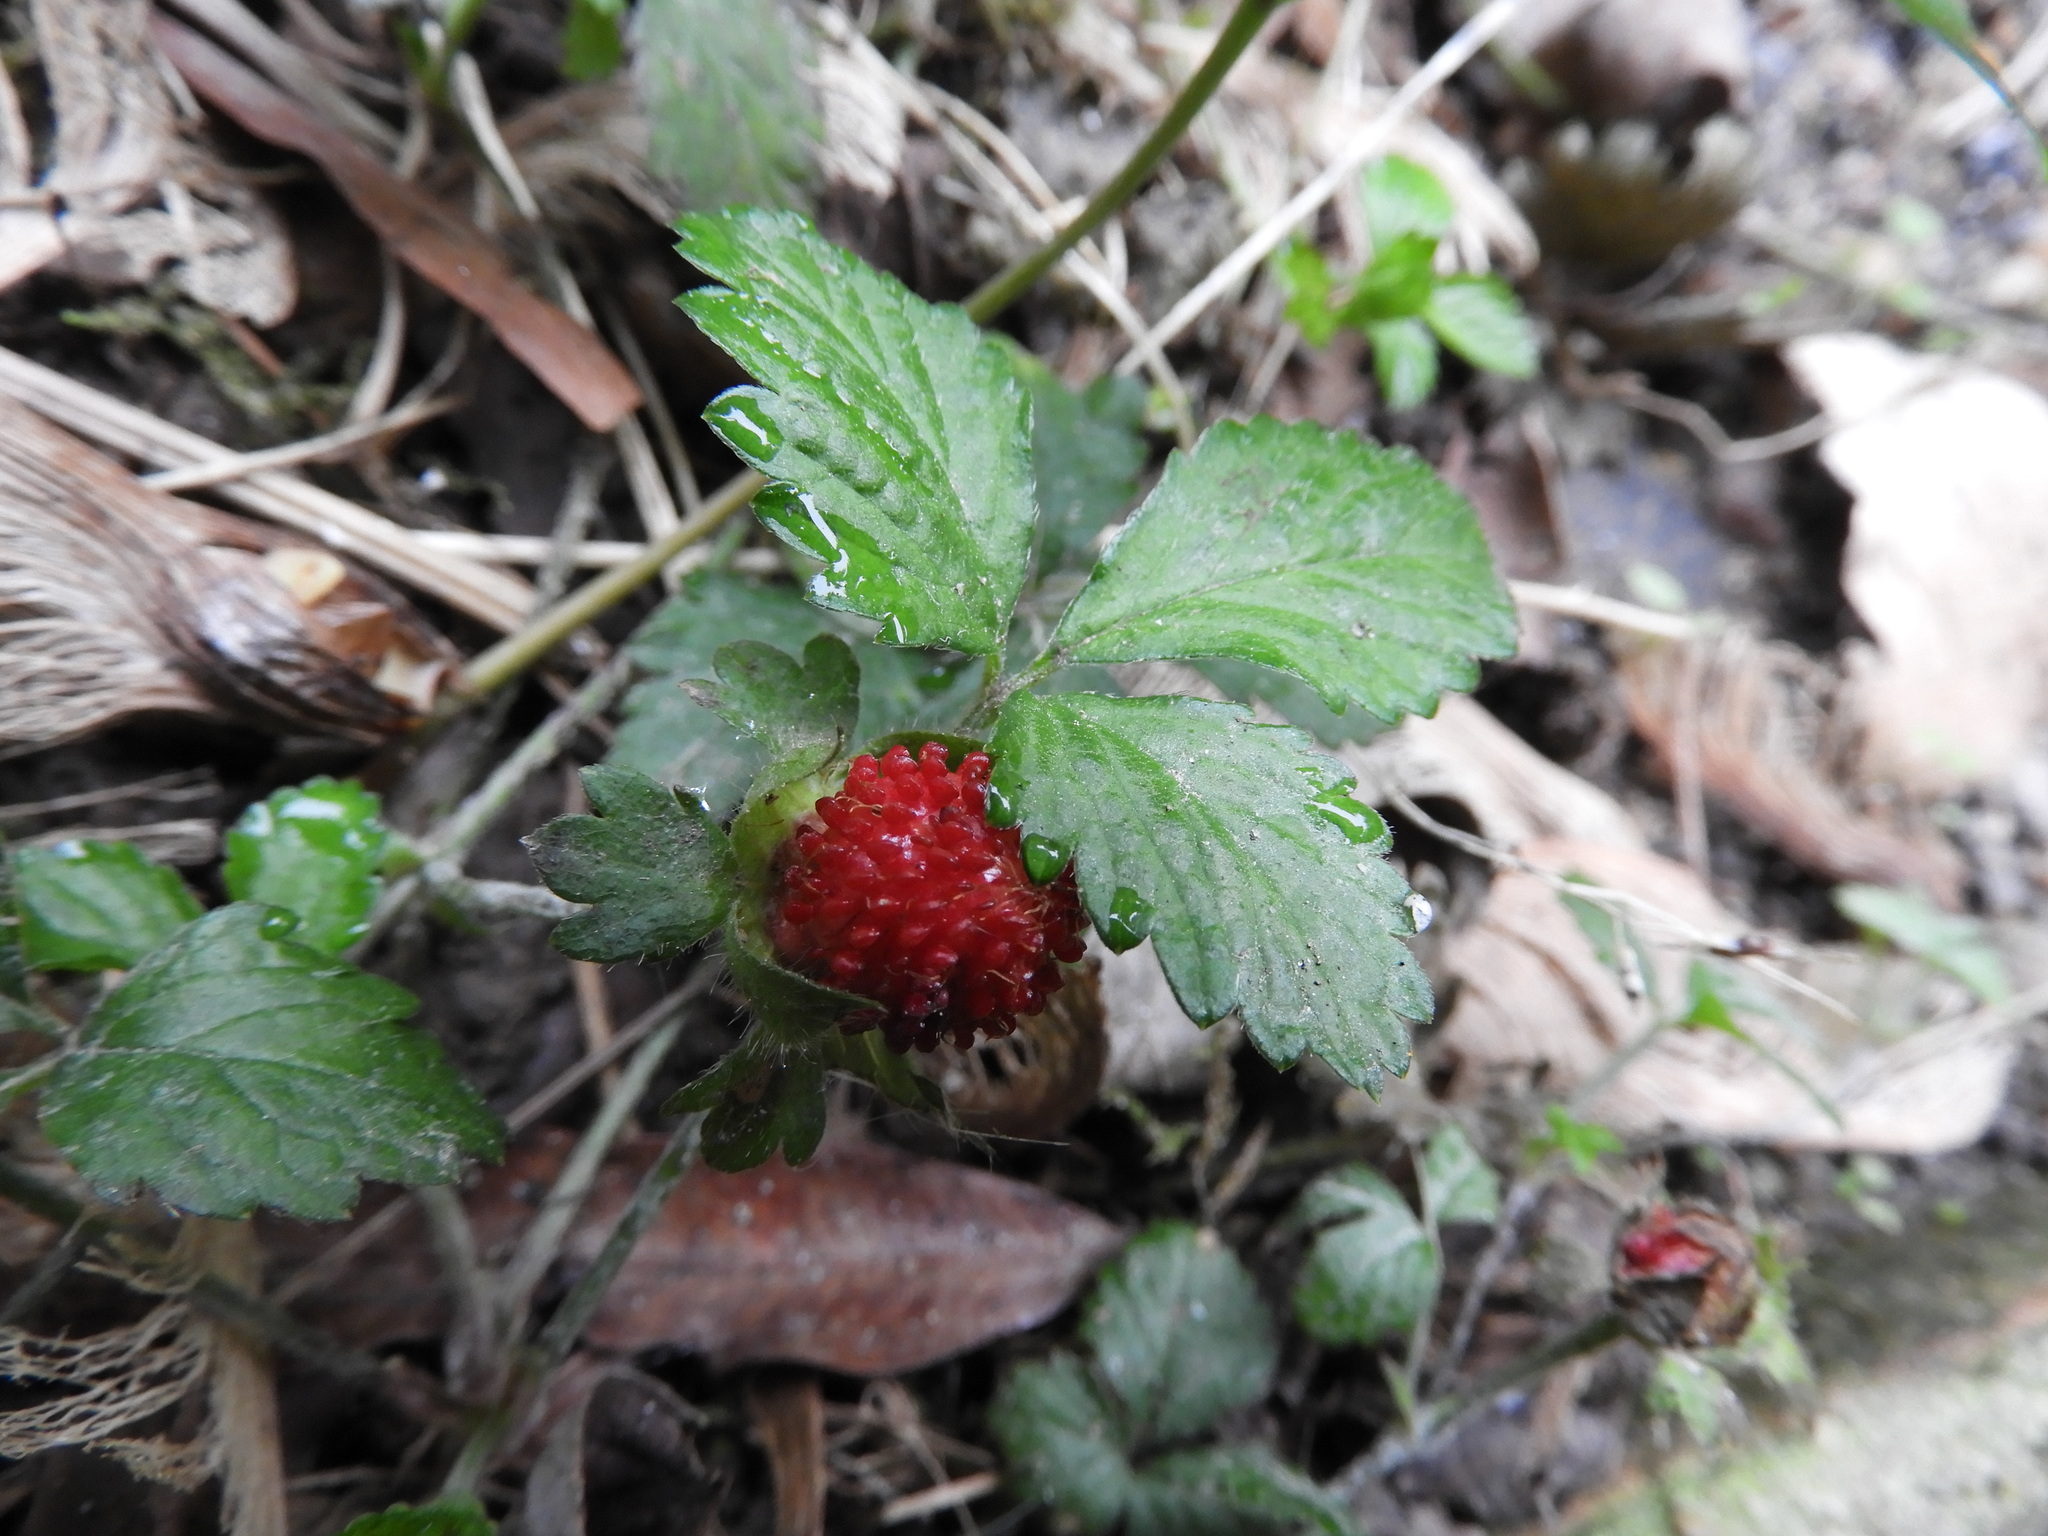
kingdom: Plantae
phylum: Tracheophyta
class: Magnoliopsida
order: Rosales
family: Rosaceae
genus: Potentilla
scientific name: Potentilla indica
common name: Yellow-flowered strawberry
